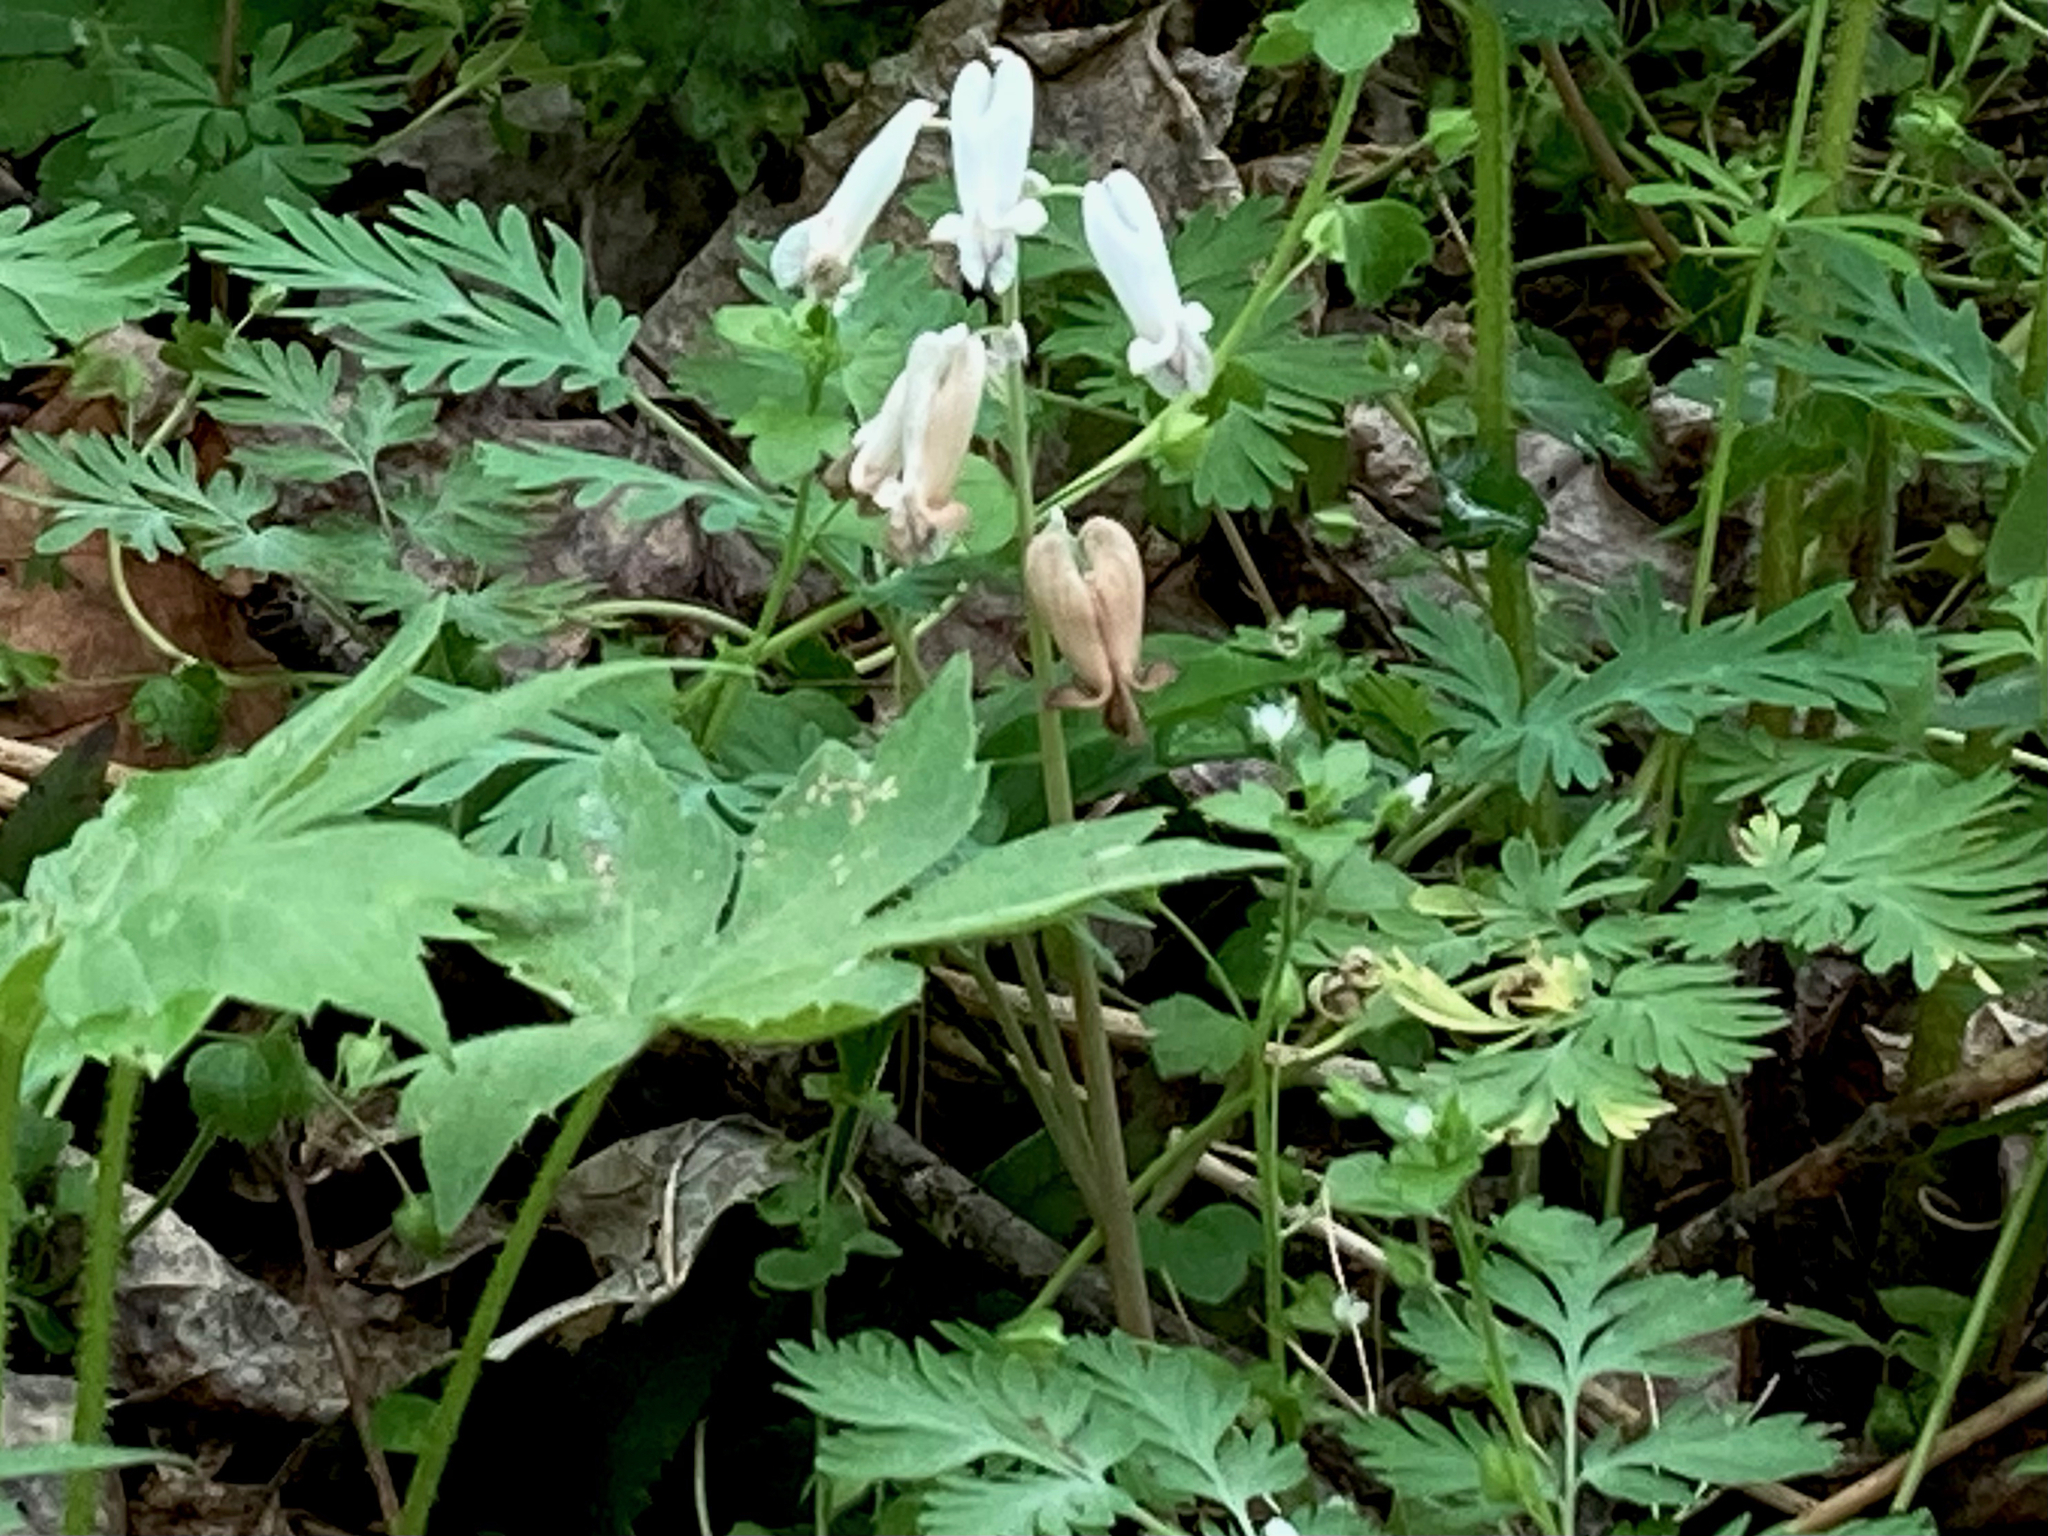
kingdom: Plantae
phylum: Tracheophyta
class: Magnoliopsida
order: Ranunculales
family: Papaveraceae
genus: Dicentra
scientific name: Dicentra canadensis
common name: Squirrel-corn
